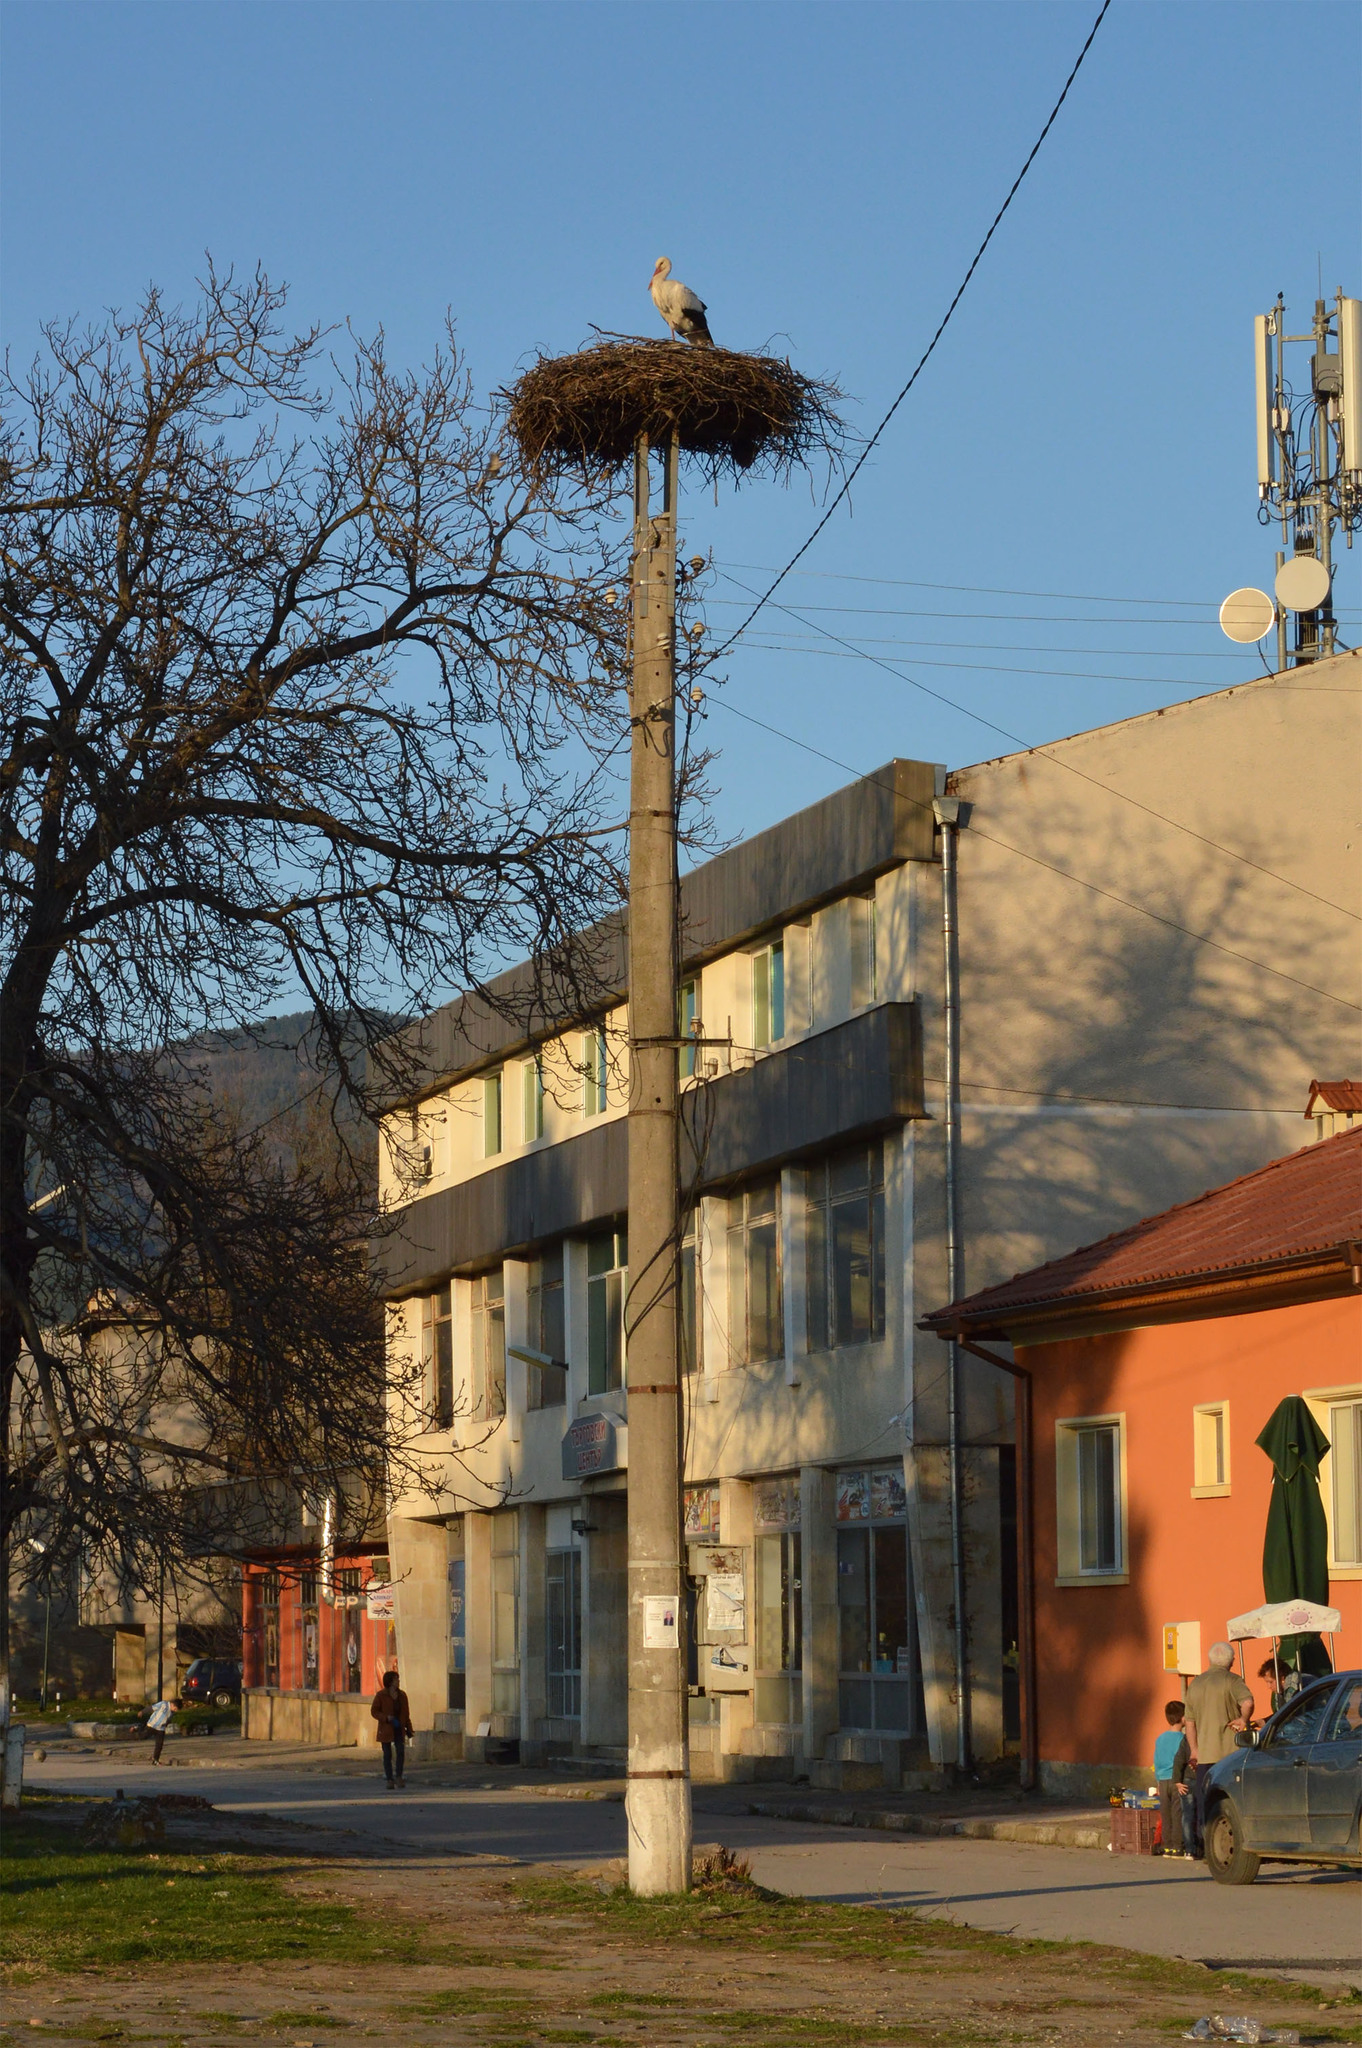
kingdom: Animalia
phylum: Chordata
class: Aves
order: Ciconiiformes
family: Ciconiidae
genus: Ciconia
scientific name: Ciconia ciconia
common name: White stork
